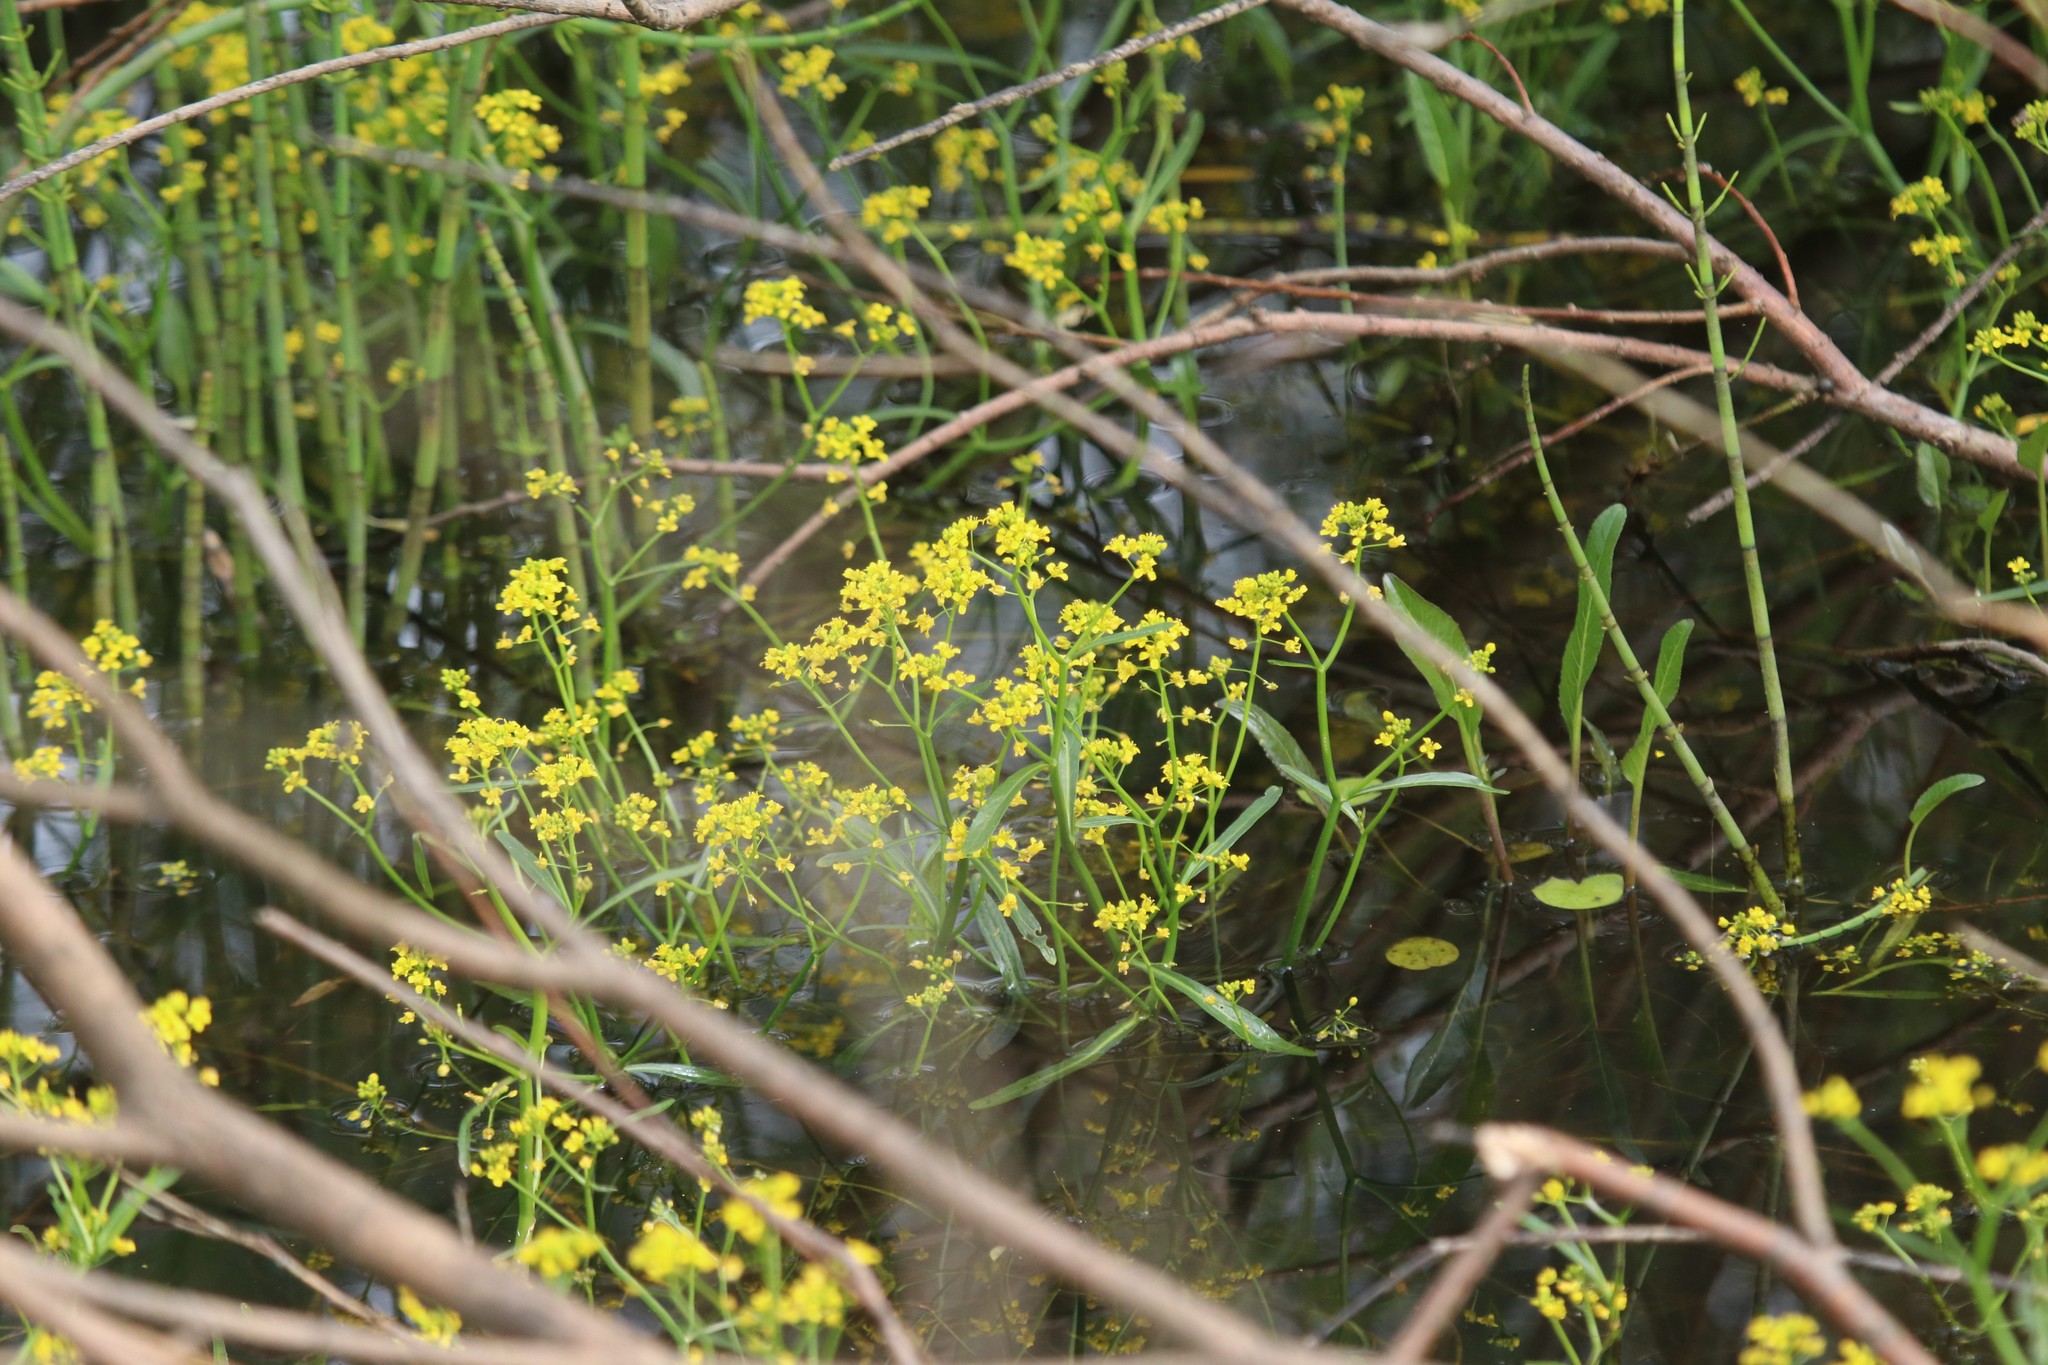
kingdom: Plantae
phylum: Tracheophyta
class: Magnoliopsida
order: Brassicales
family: Brassicaceae
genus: Rorippa
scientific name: Rorippa amphibia
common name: Great yellow-cress
